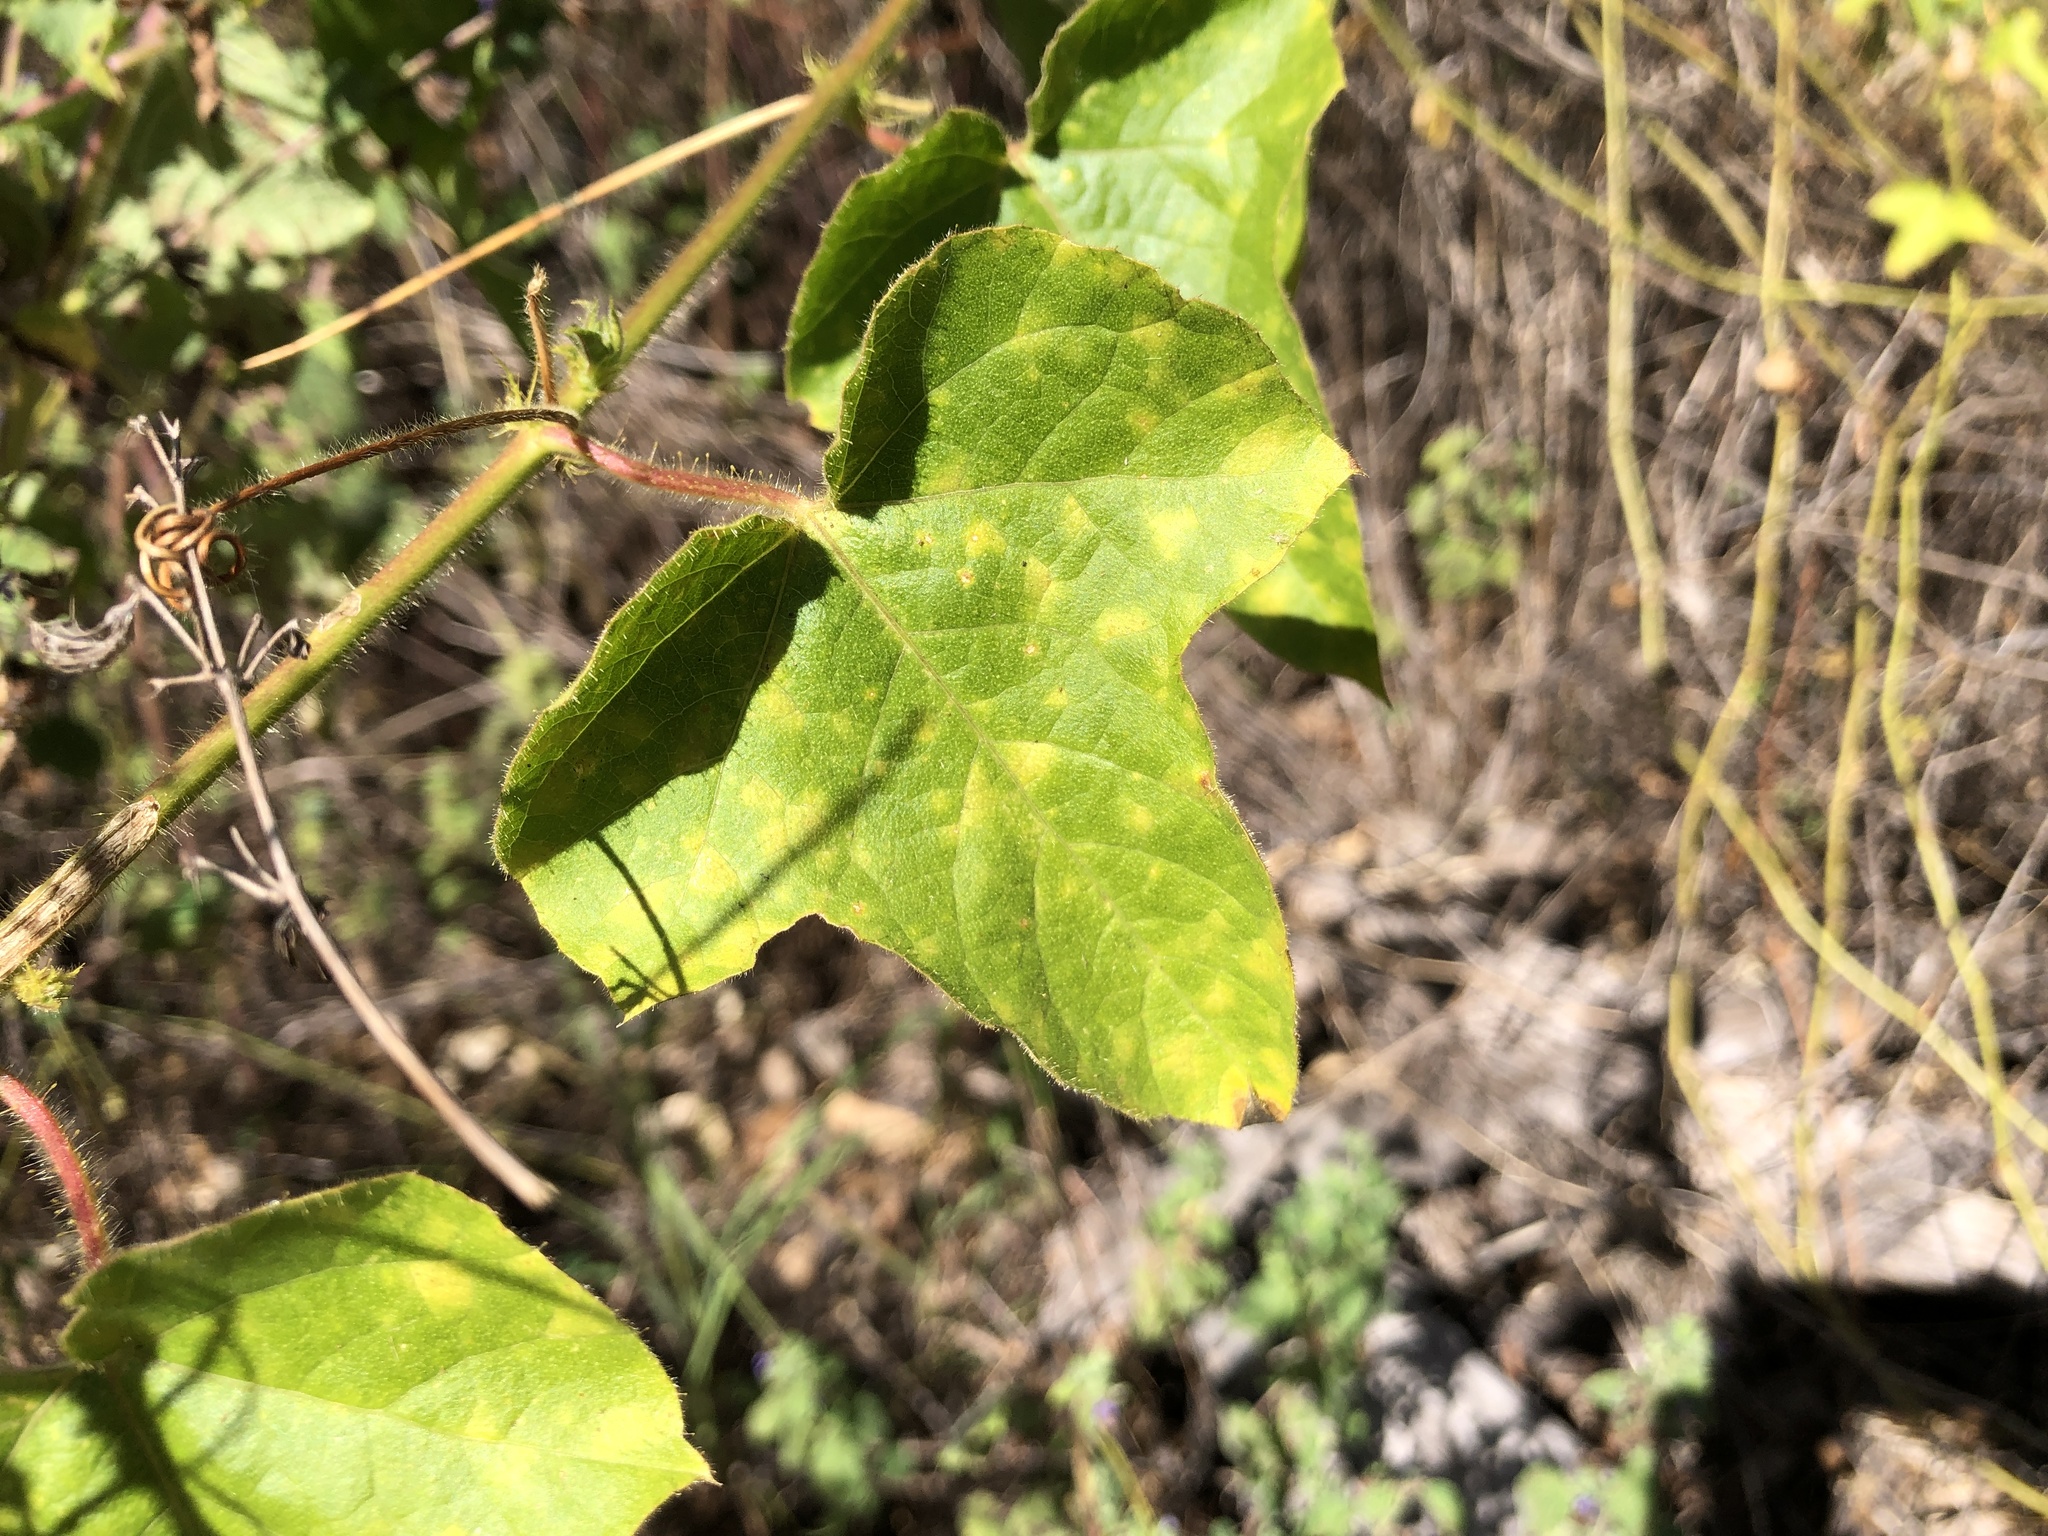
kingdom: Plantae
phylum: Tracheophyta
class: Magnoliopsida
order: Malpighiales
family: Passifloraceae
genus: Passiflora
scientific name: Passiflora foetida
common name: Fetid passionflower
